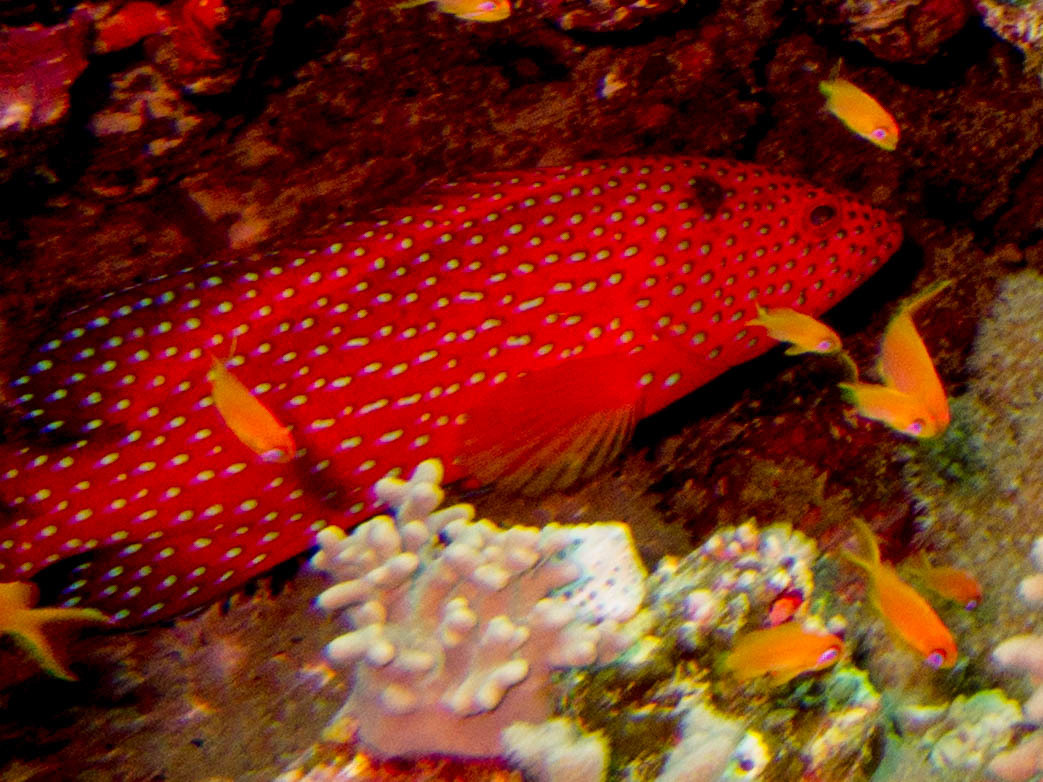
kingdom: Animalia
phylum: Chordata
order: Perciformes
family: Serranidae
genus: Cephalopholis
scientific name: Cephalopholis miniata
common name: Coral hind
